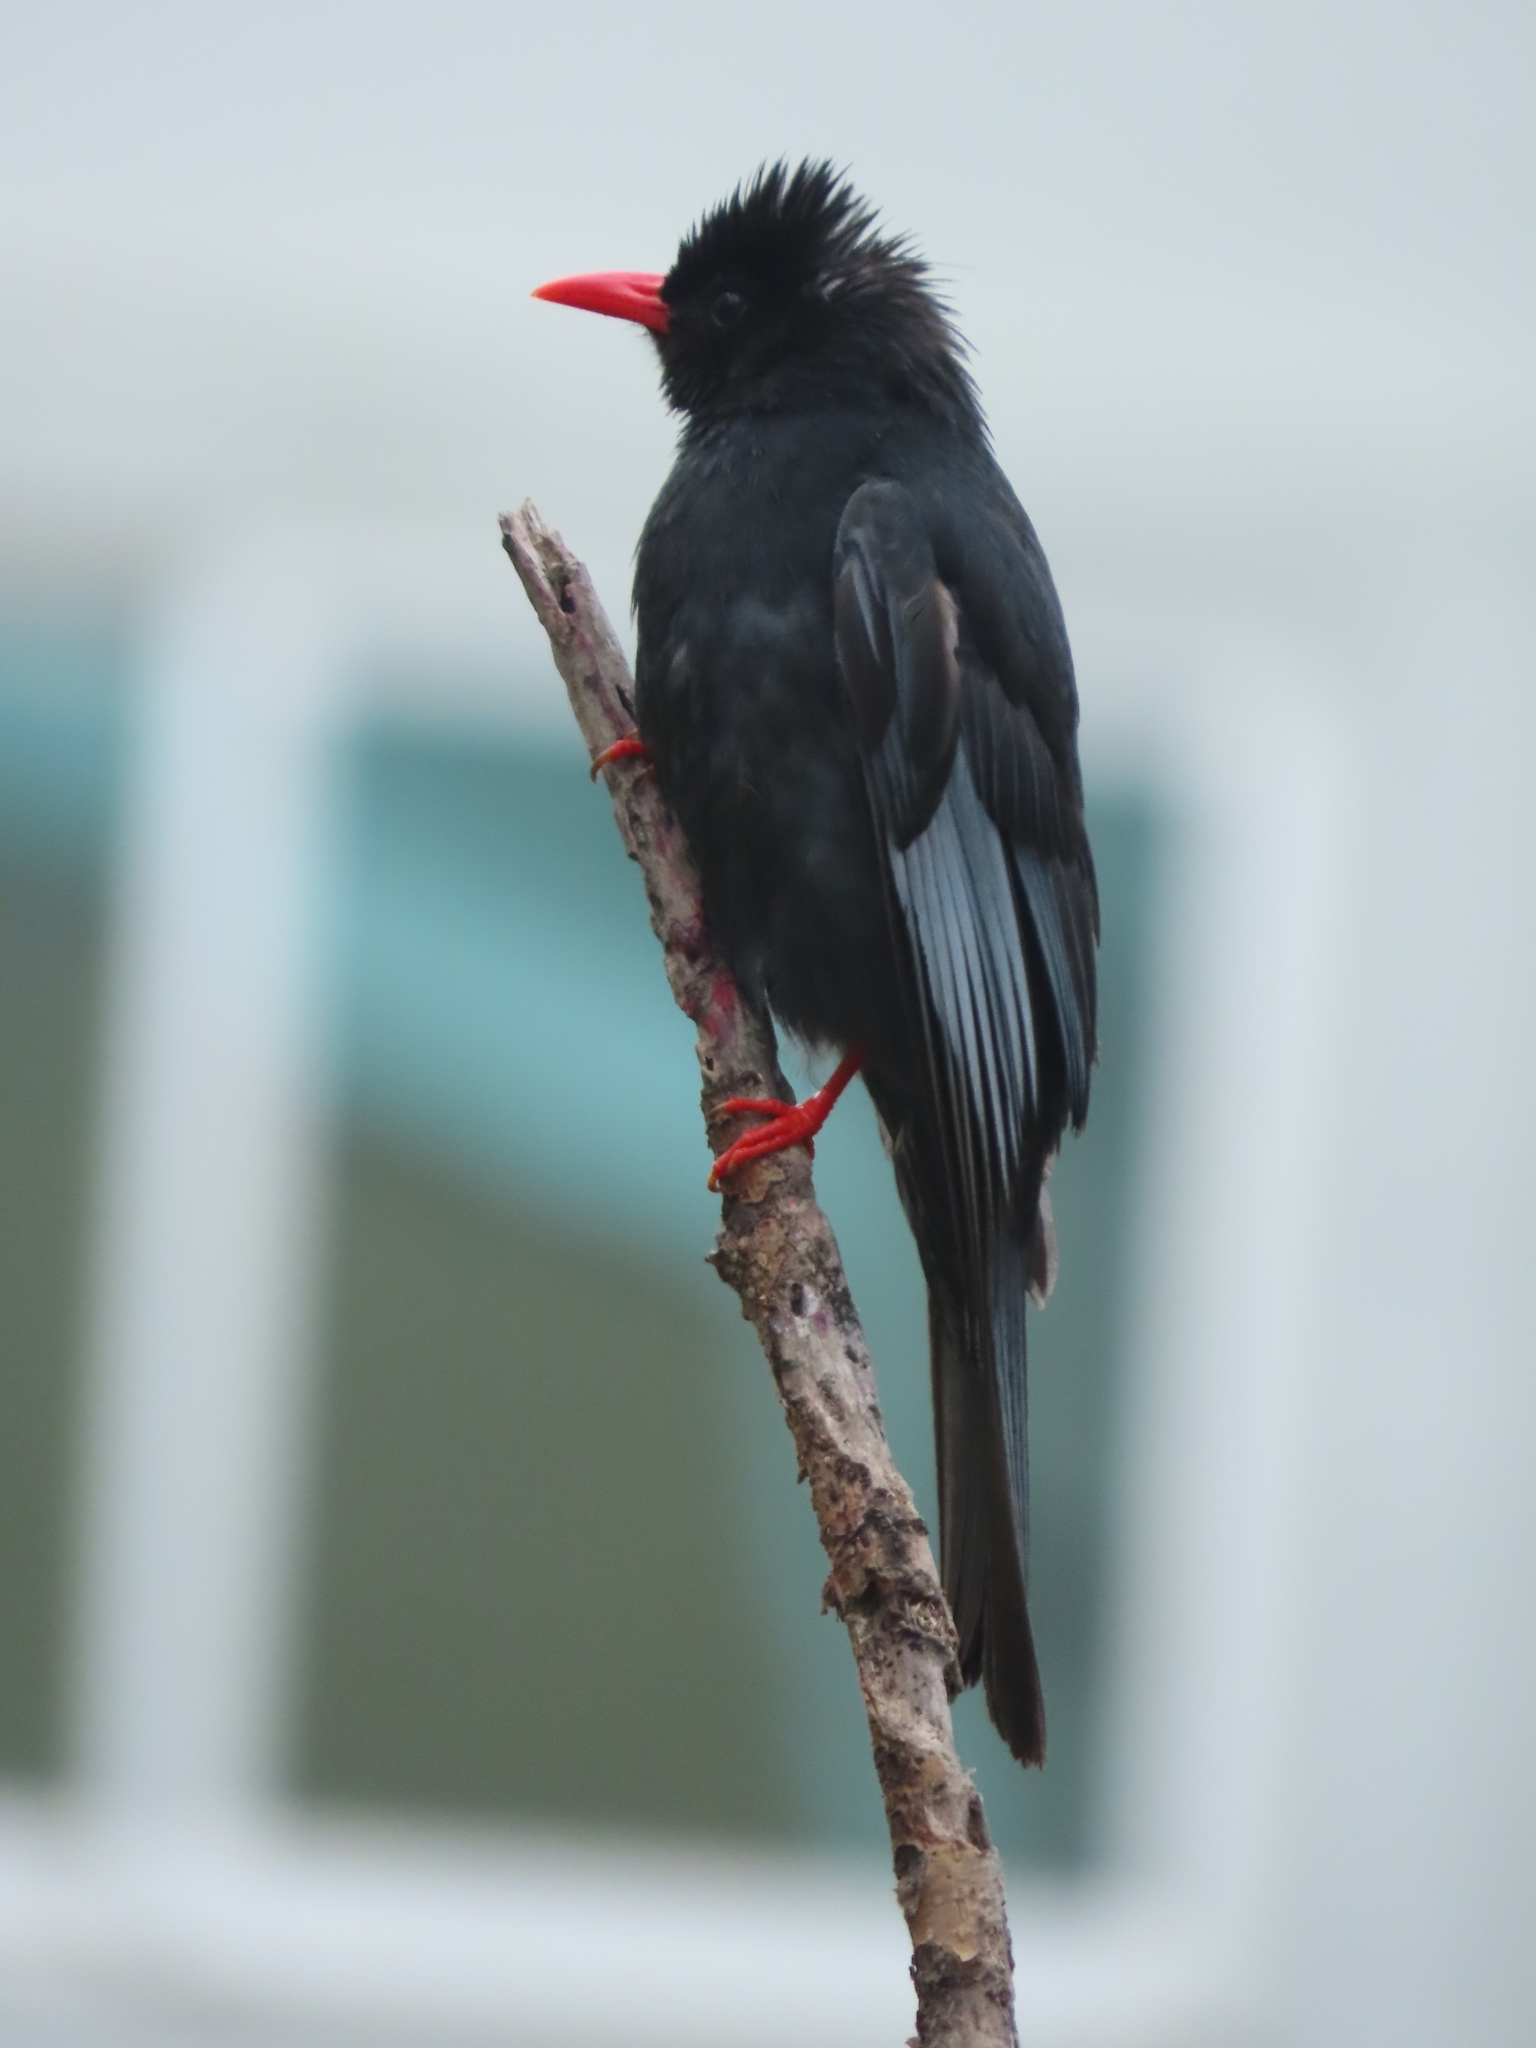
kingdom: Animalia
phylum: Chordata
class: Aves
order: Passeriformes
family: Pycnonotidae
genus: Hypsipetes
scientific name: Hypsipetes leucocephalus
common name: Black bulbul
